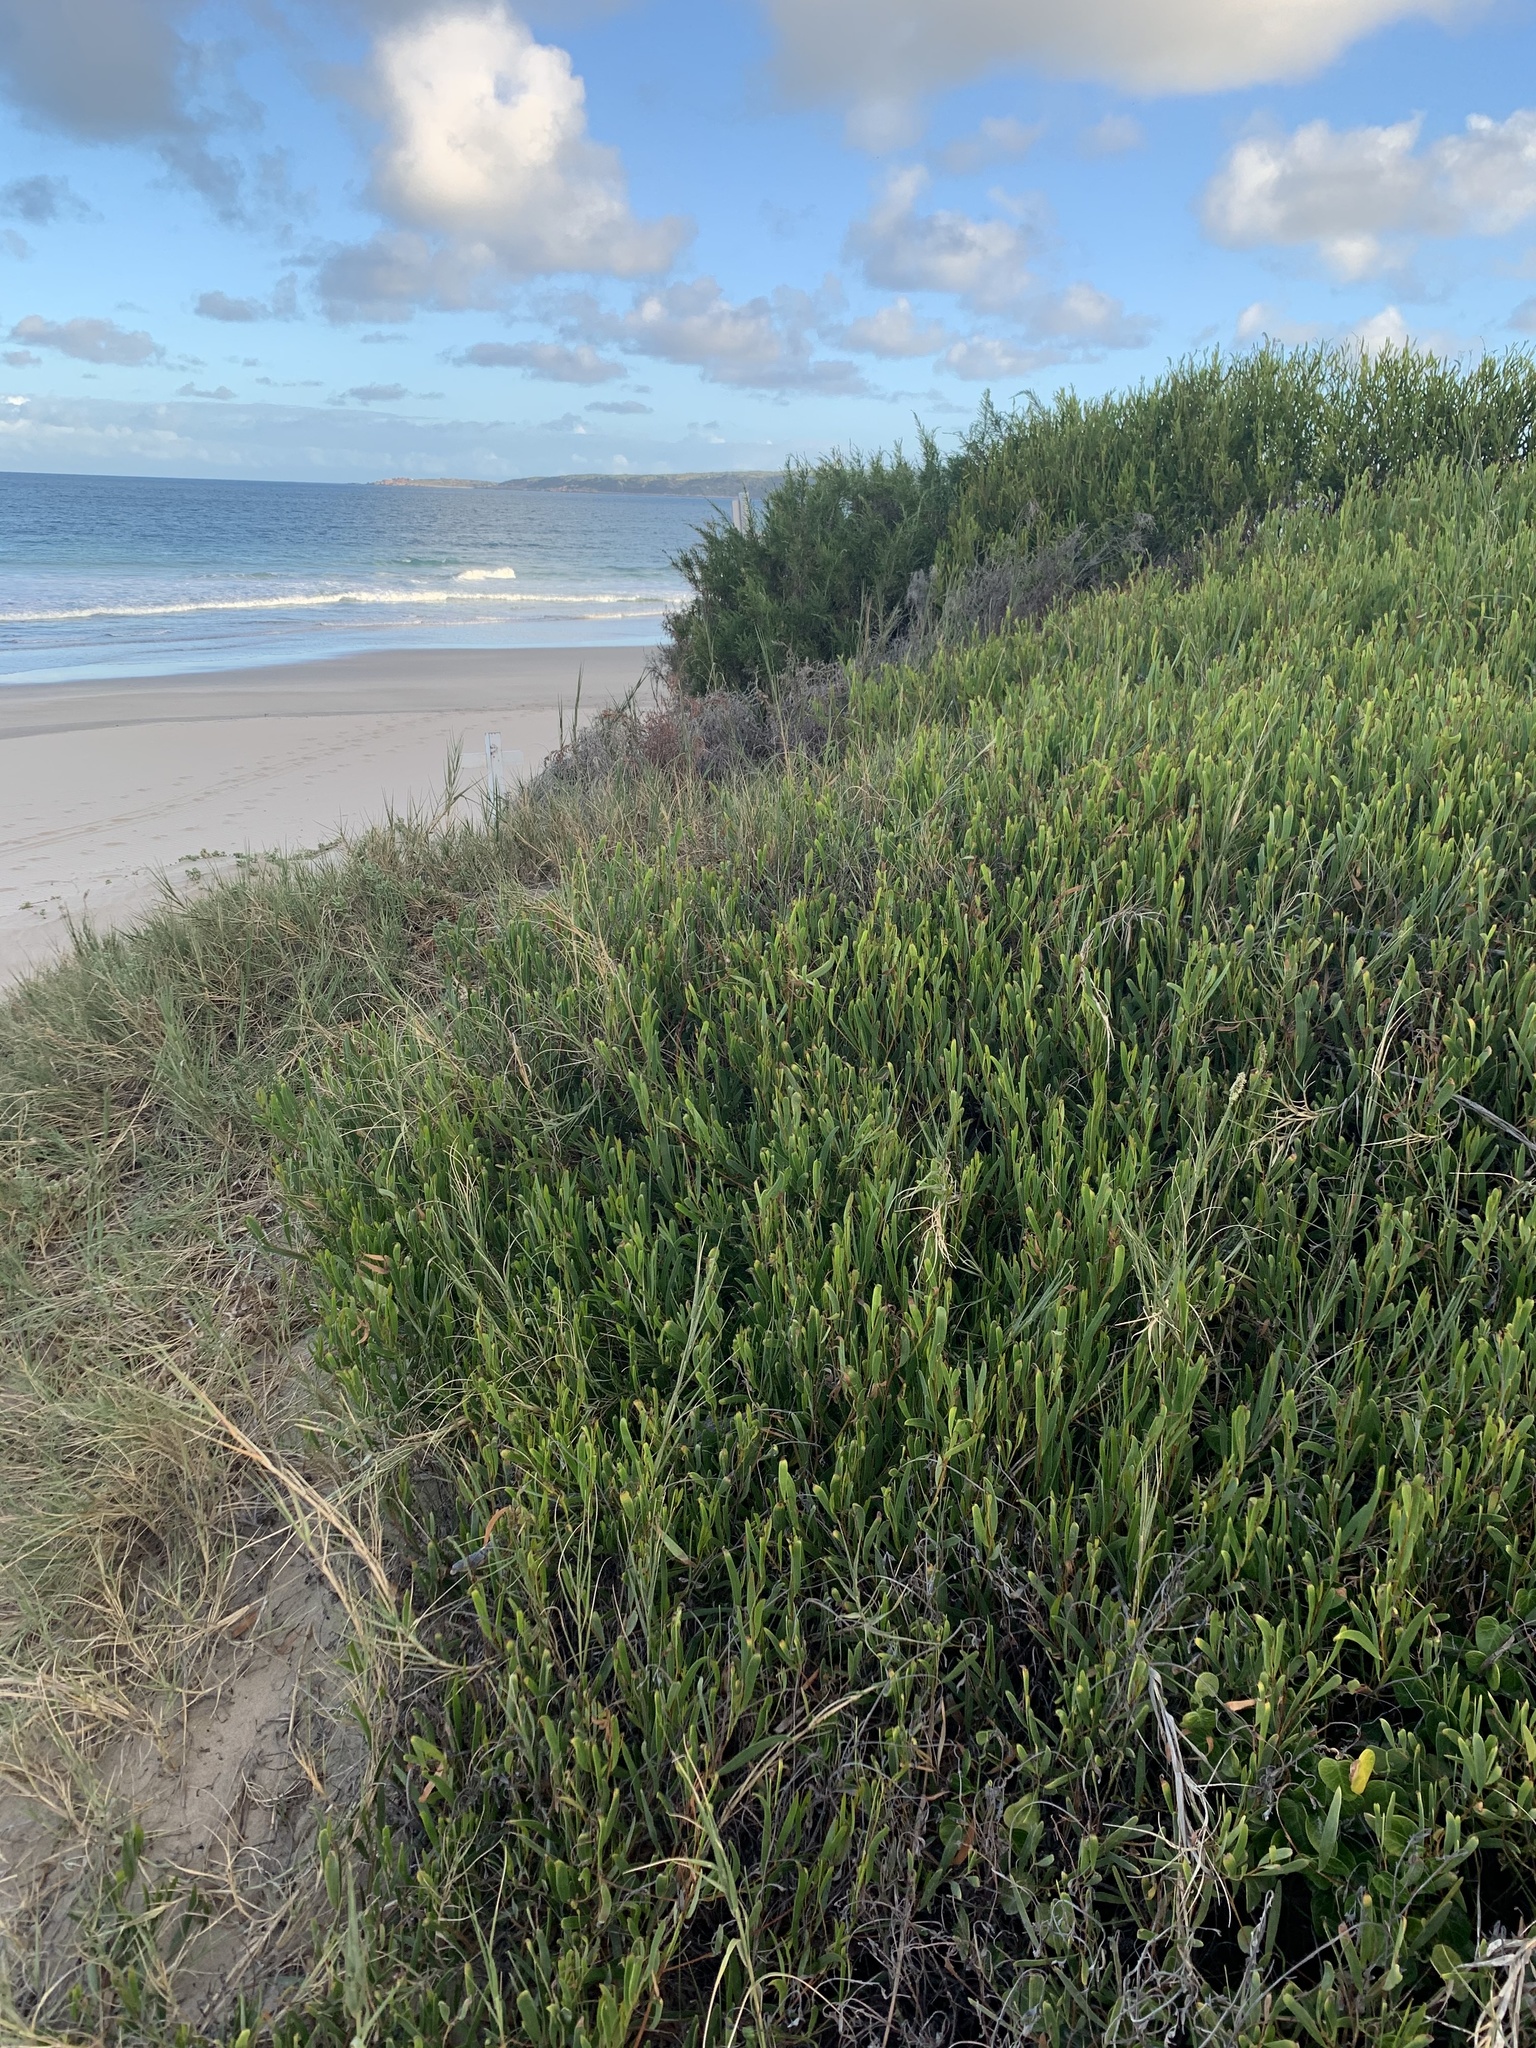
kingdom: Plantae
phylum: Tracheophyta
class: Magnoliopsida
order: Fabales
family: Fabaceae
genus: Acacia
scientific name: Acacia cyclops
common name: Coastal wattle
